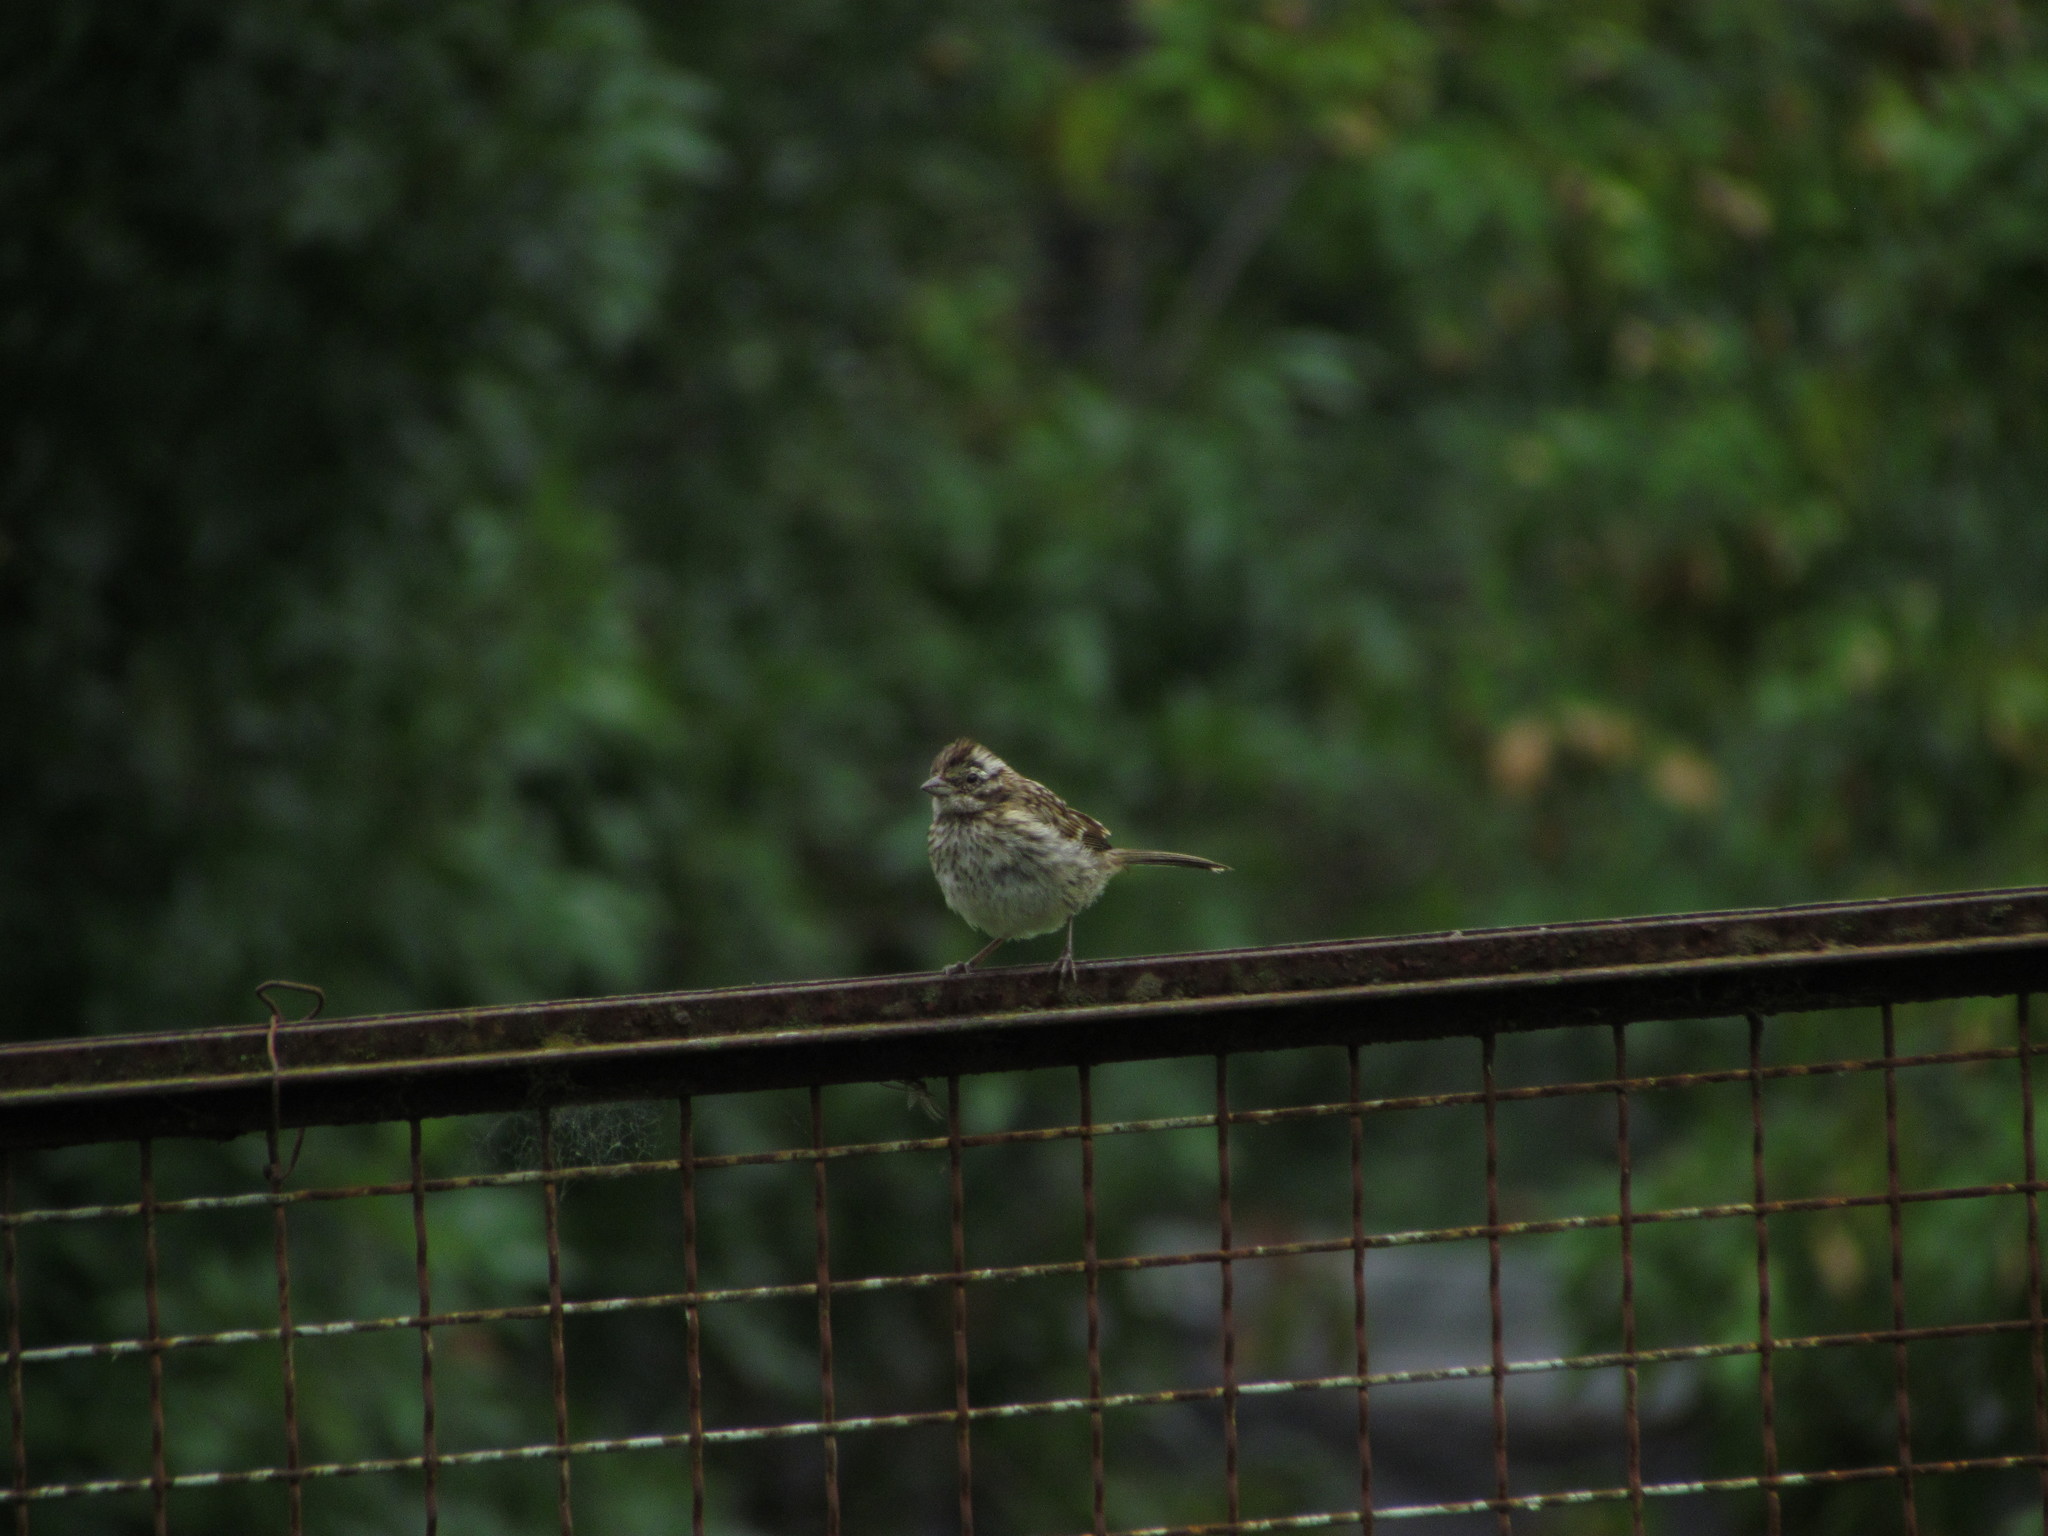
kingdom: Animalia
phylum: Chordata
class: Aves
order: Passeriformes
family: Passerellidae
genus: Zonotrichia
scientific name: Zonotrichia capensis
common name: Rufous-collared sparrow
